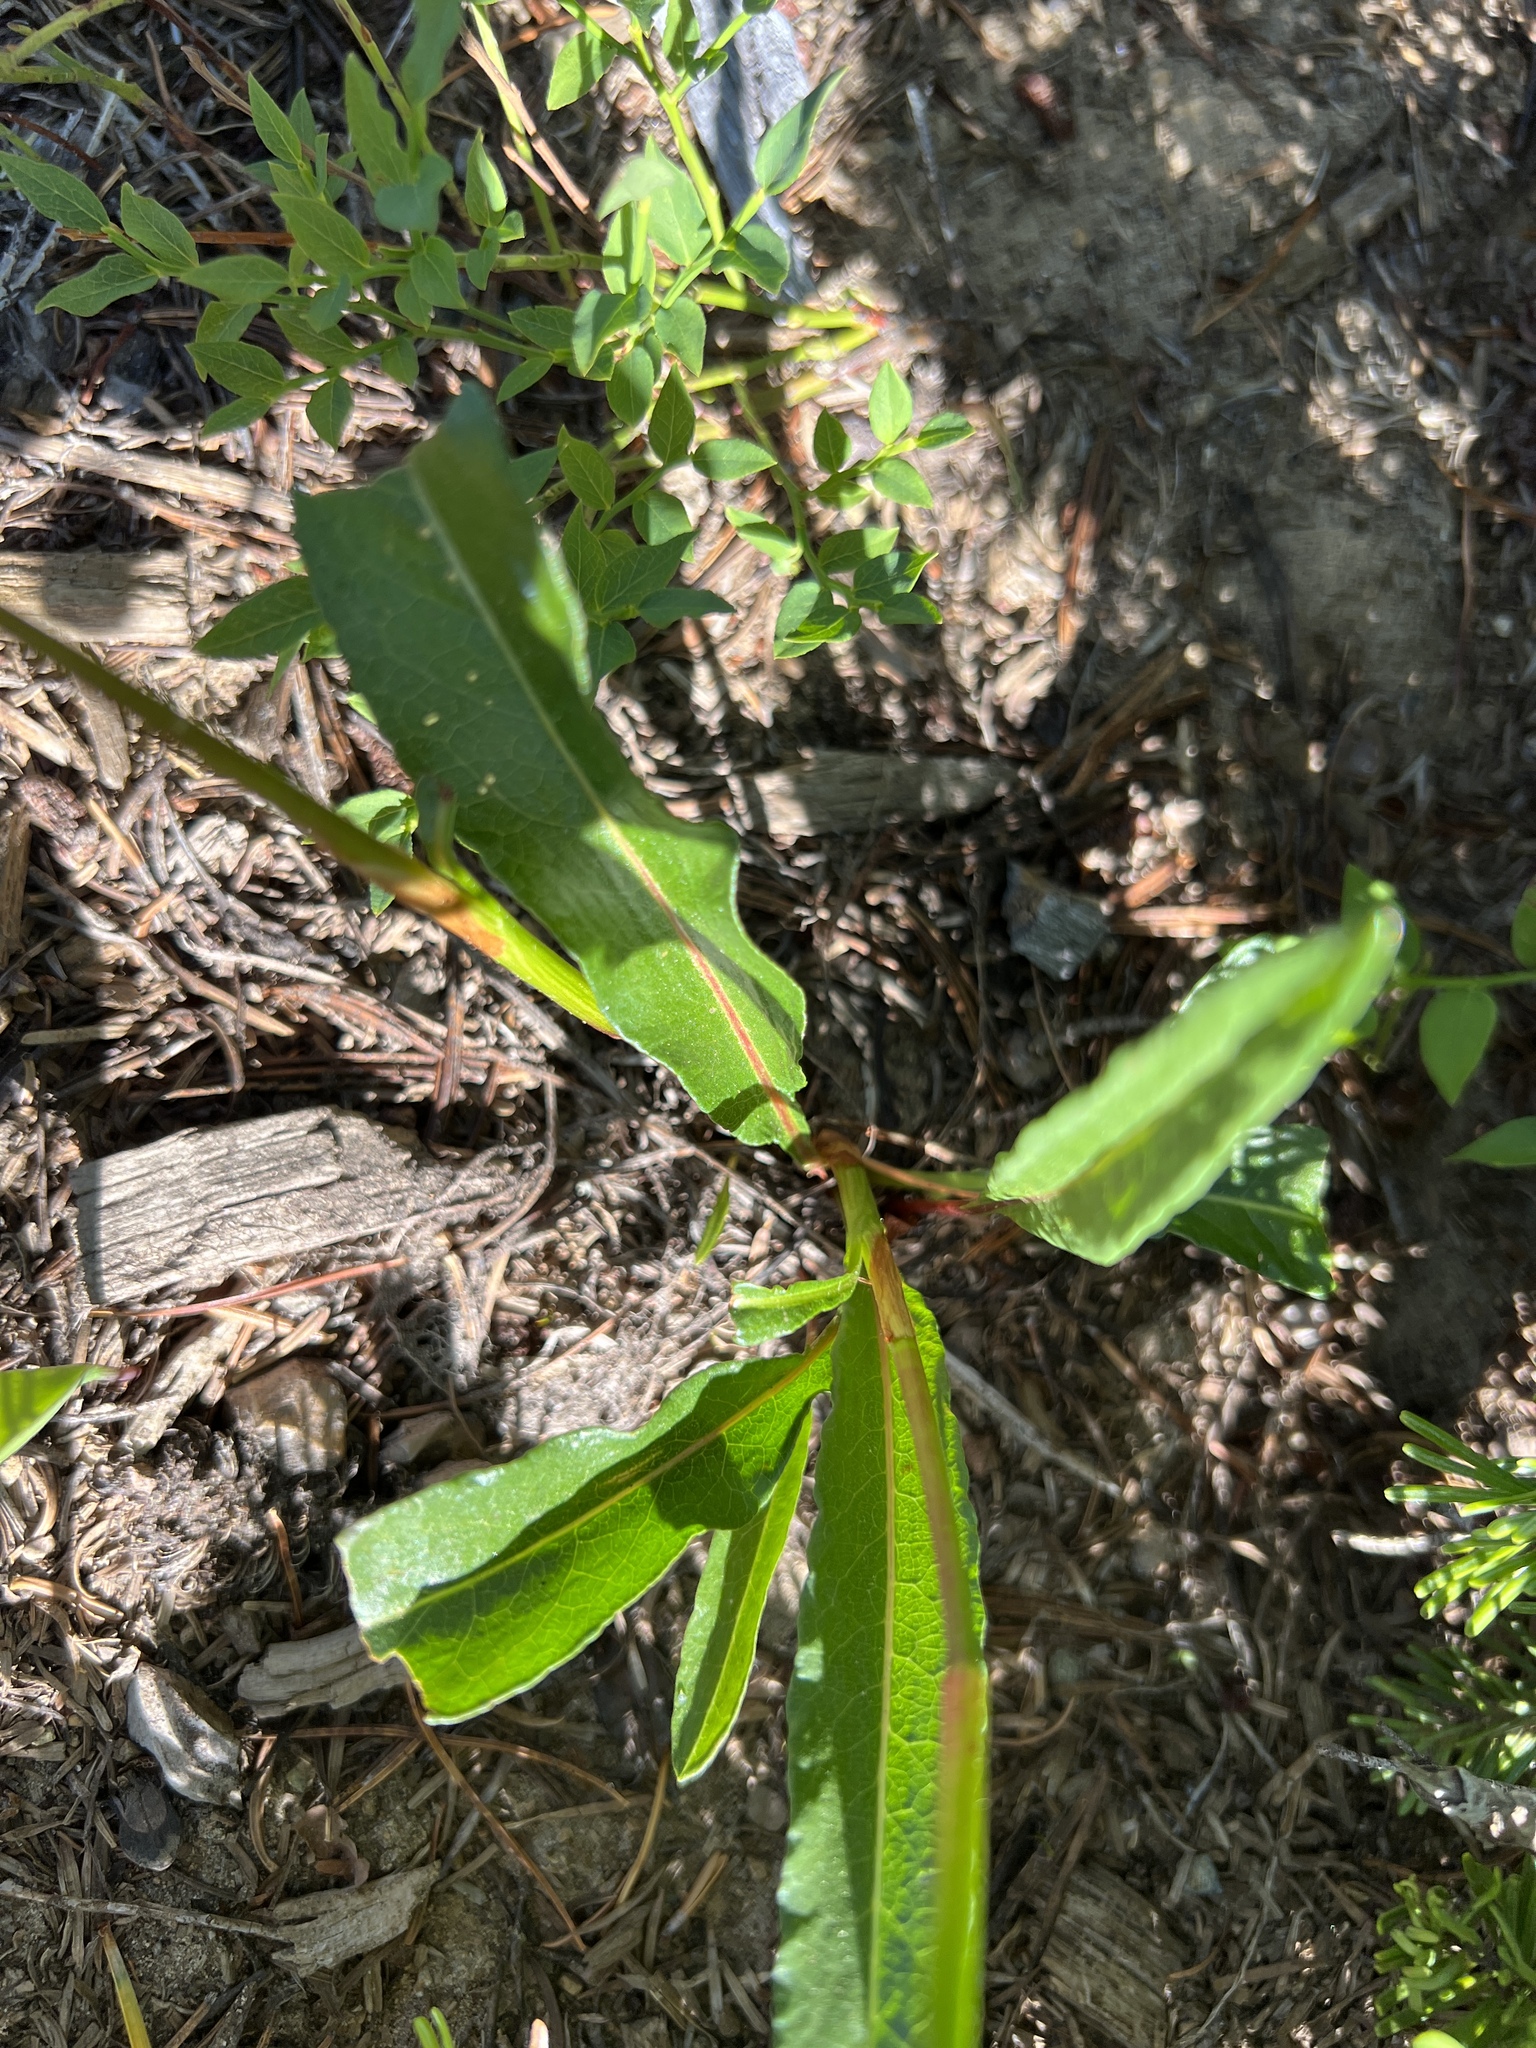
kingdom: Plantae
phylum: Tracheophyta
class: Magnoliopsida
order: Caryophyllales
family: Polygonaceae
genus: Bistorta
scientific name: Bistorta bistortoides
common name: American bistort
